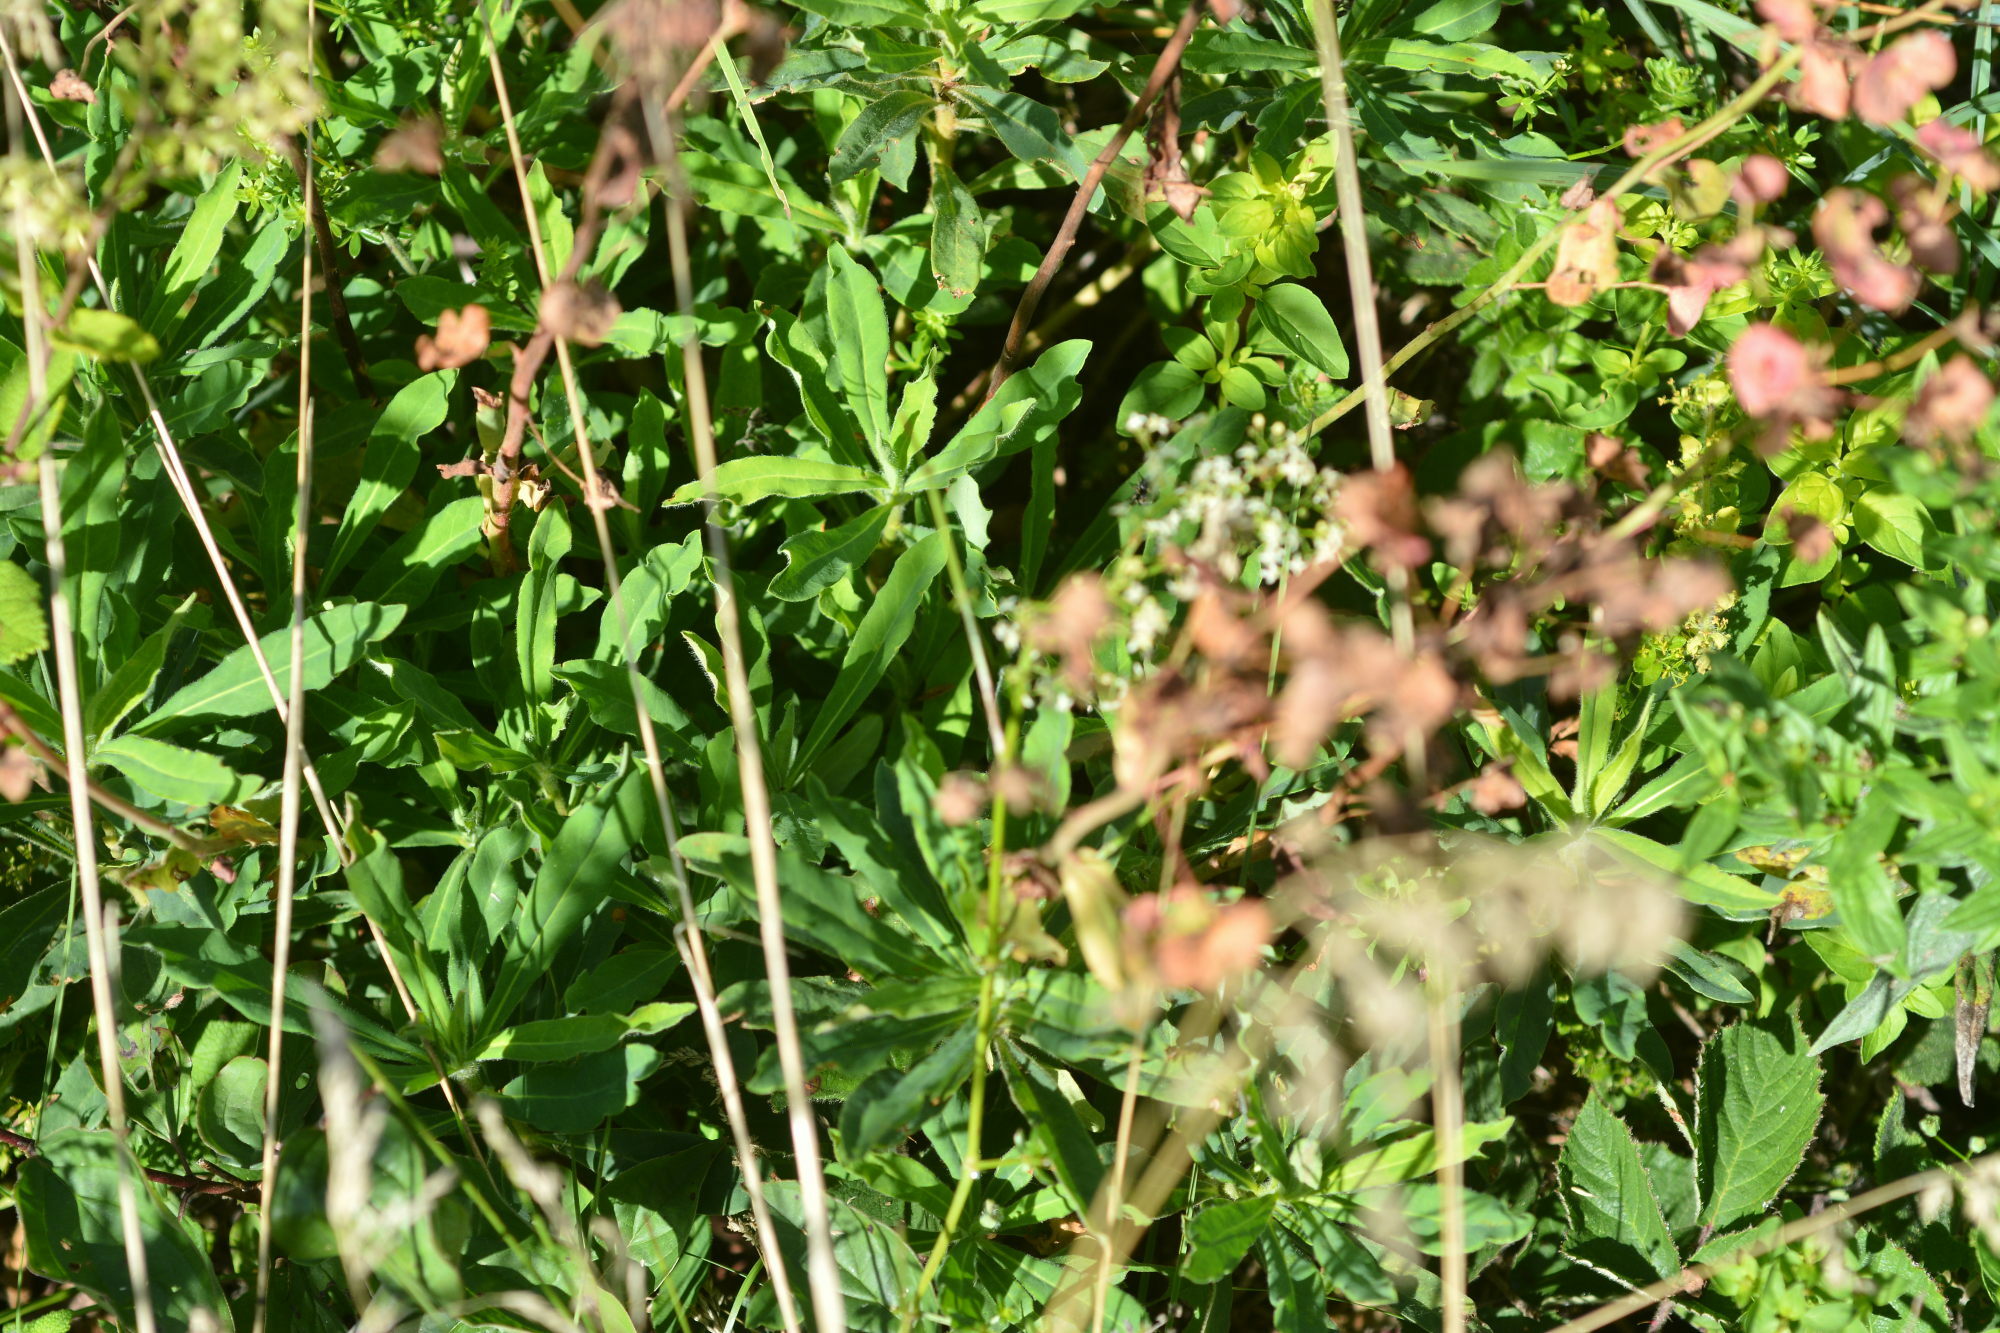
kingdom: Plantae
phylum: Tracheophyta
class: Magnoliopsida
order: Malpighiales
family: Euphorbiaceae
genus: Euphorbia
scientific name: Euphorbia amygdaloides
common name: Wood spurge
